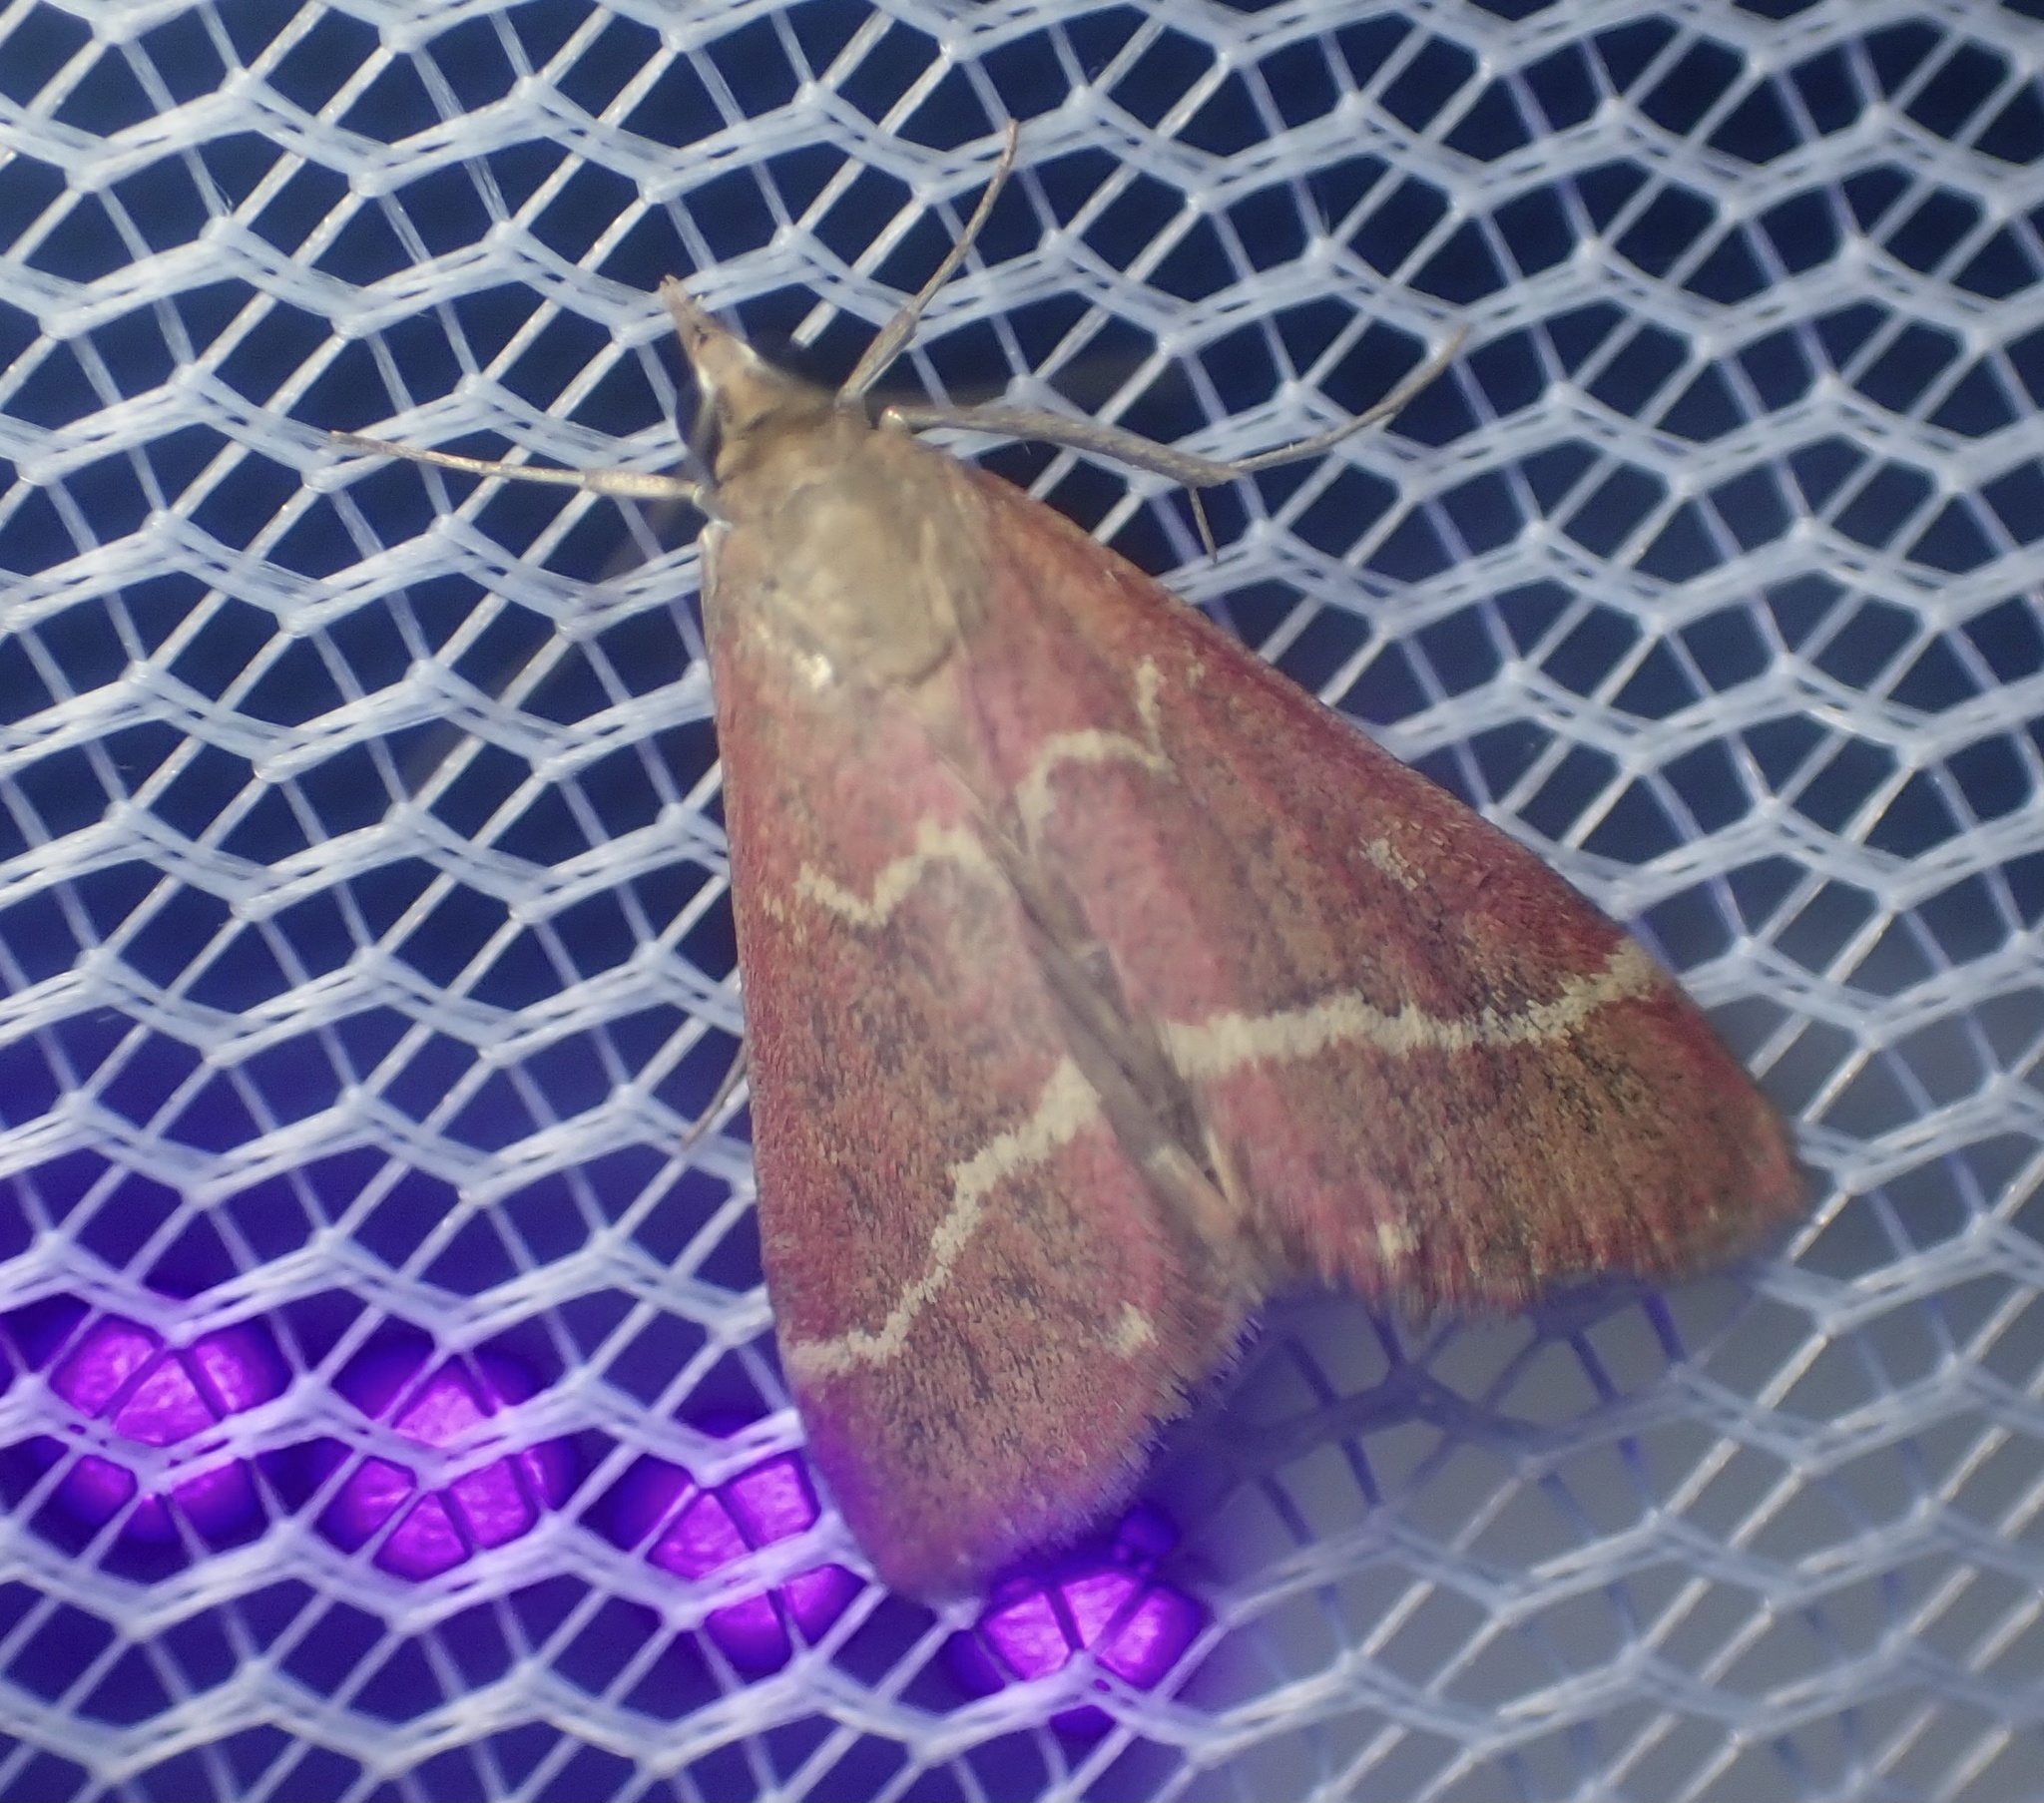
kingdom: Animalia
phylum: Arthropoda
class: Insecta
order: Lepidoptera
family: Crambidae
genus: Pyrausta
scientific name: Pyrausta volupialis
